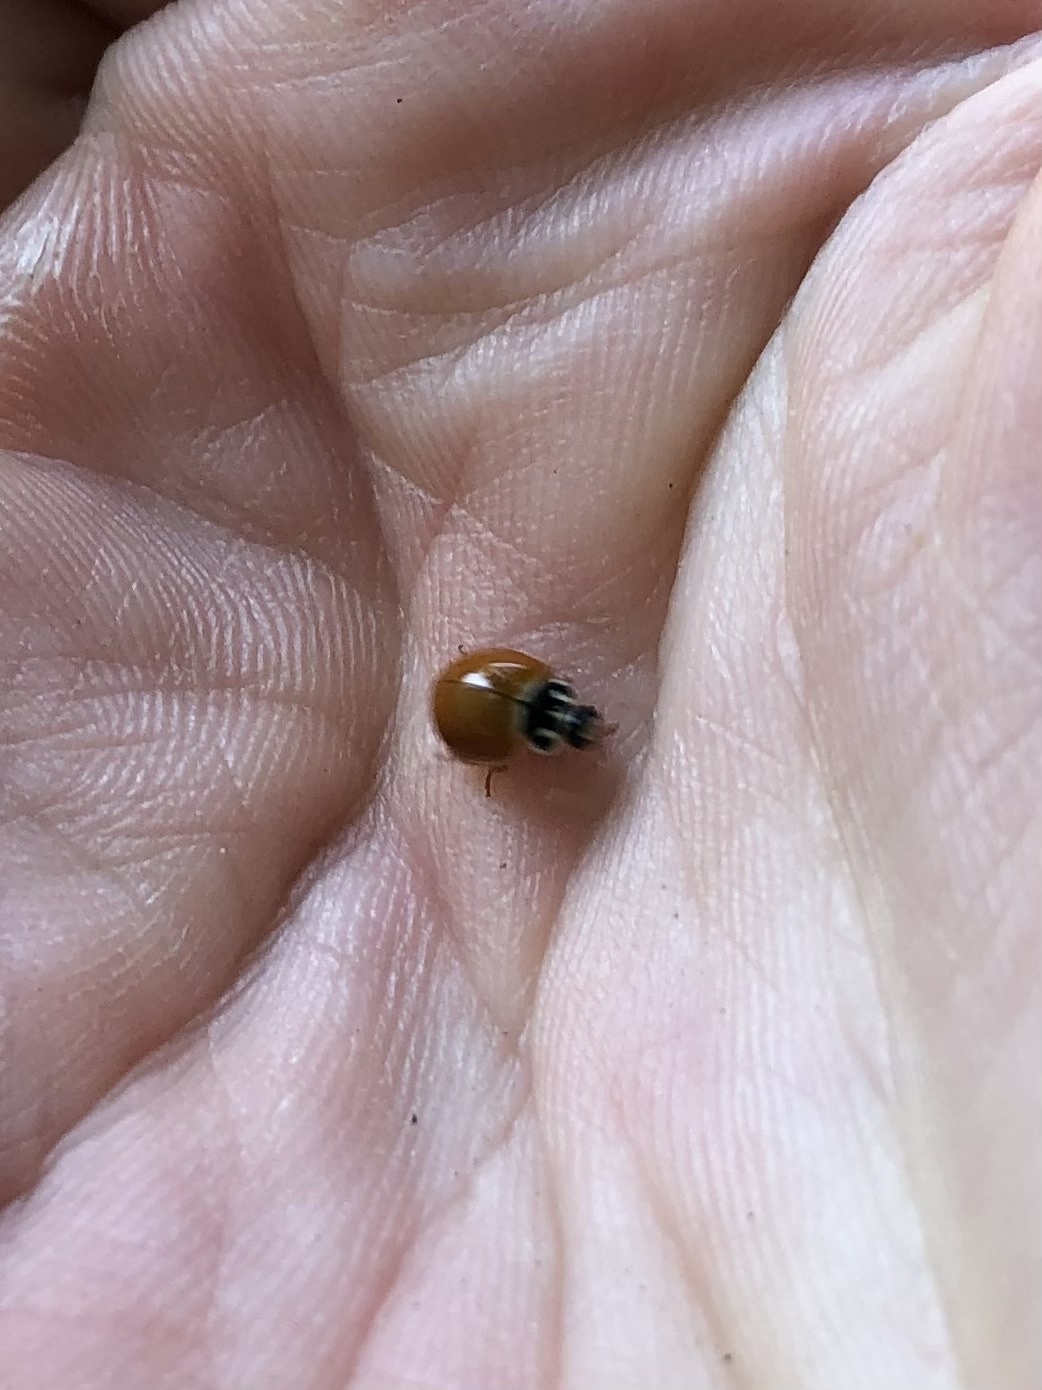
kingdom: Animalia
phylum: Arthropoda
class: Insecta
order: Coleoptera
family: Coccinellidae
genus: Cycloneda
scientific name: Cycloneda munda
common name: Polished lady beetle
